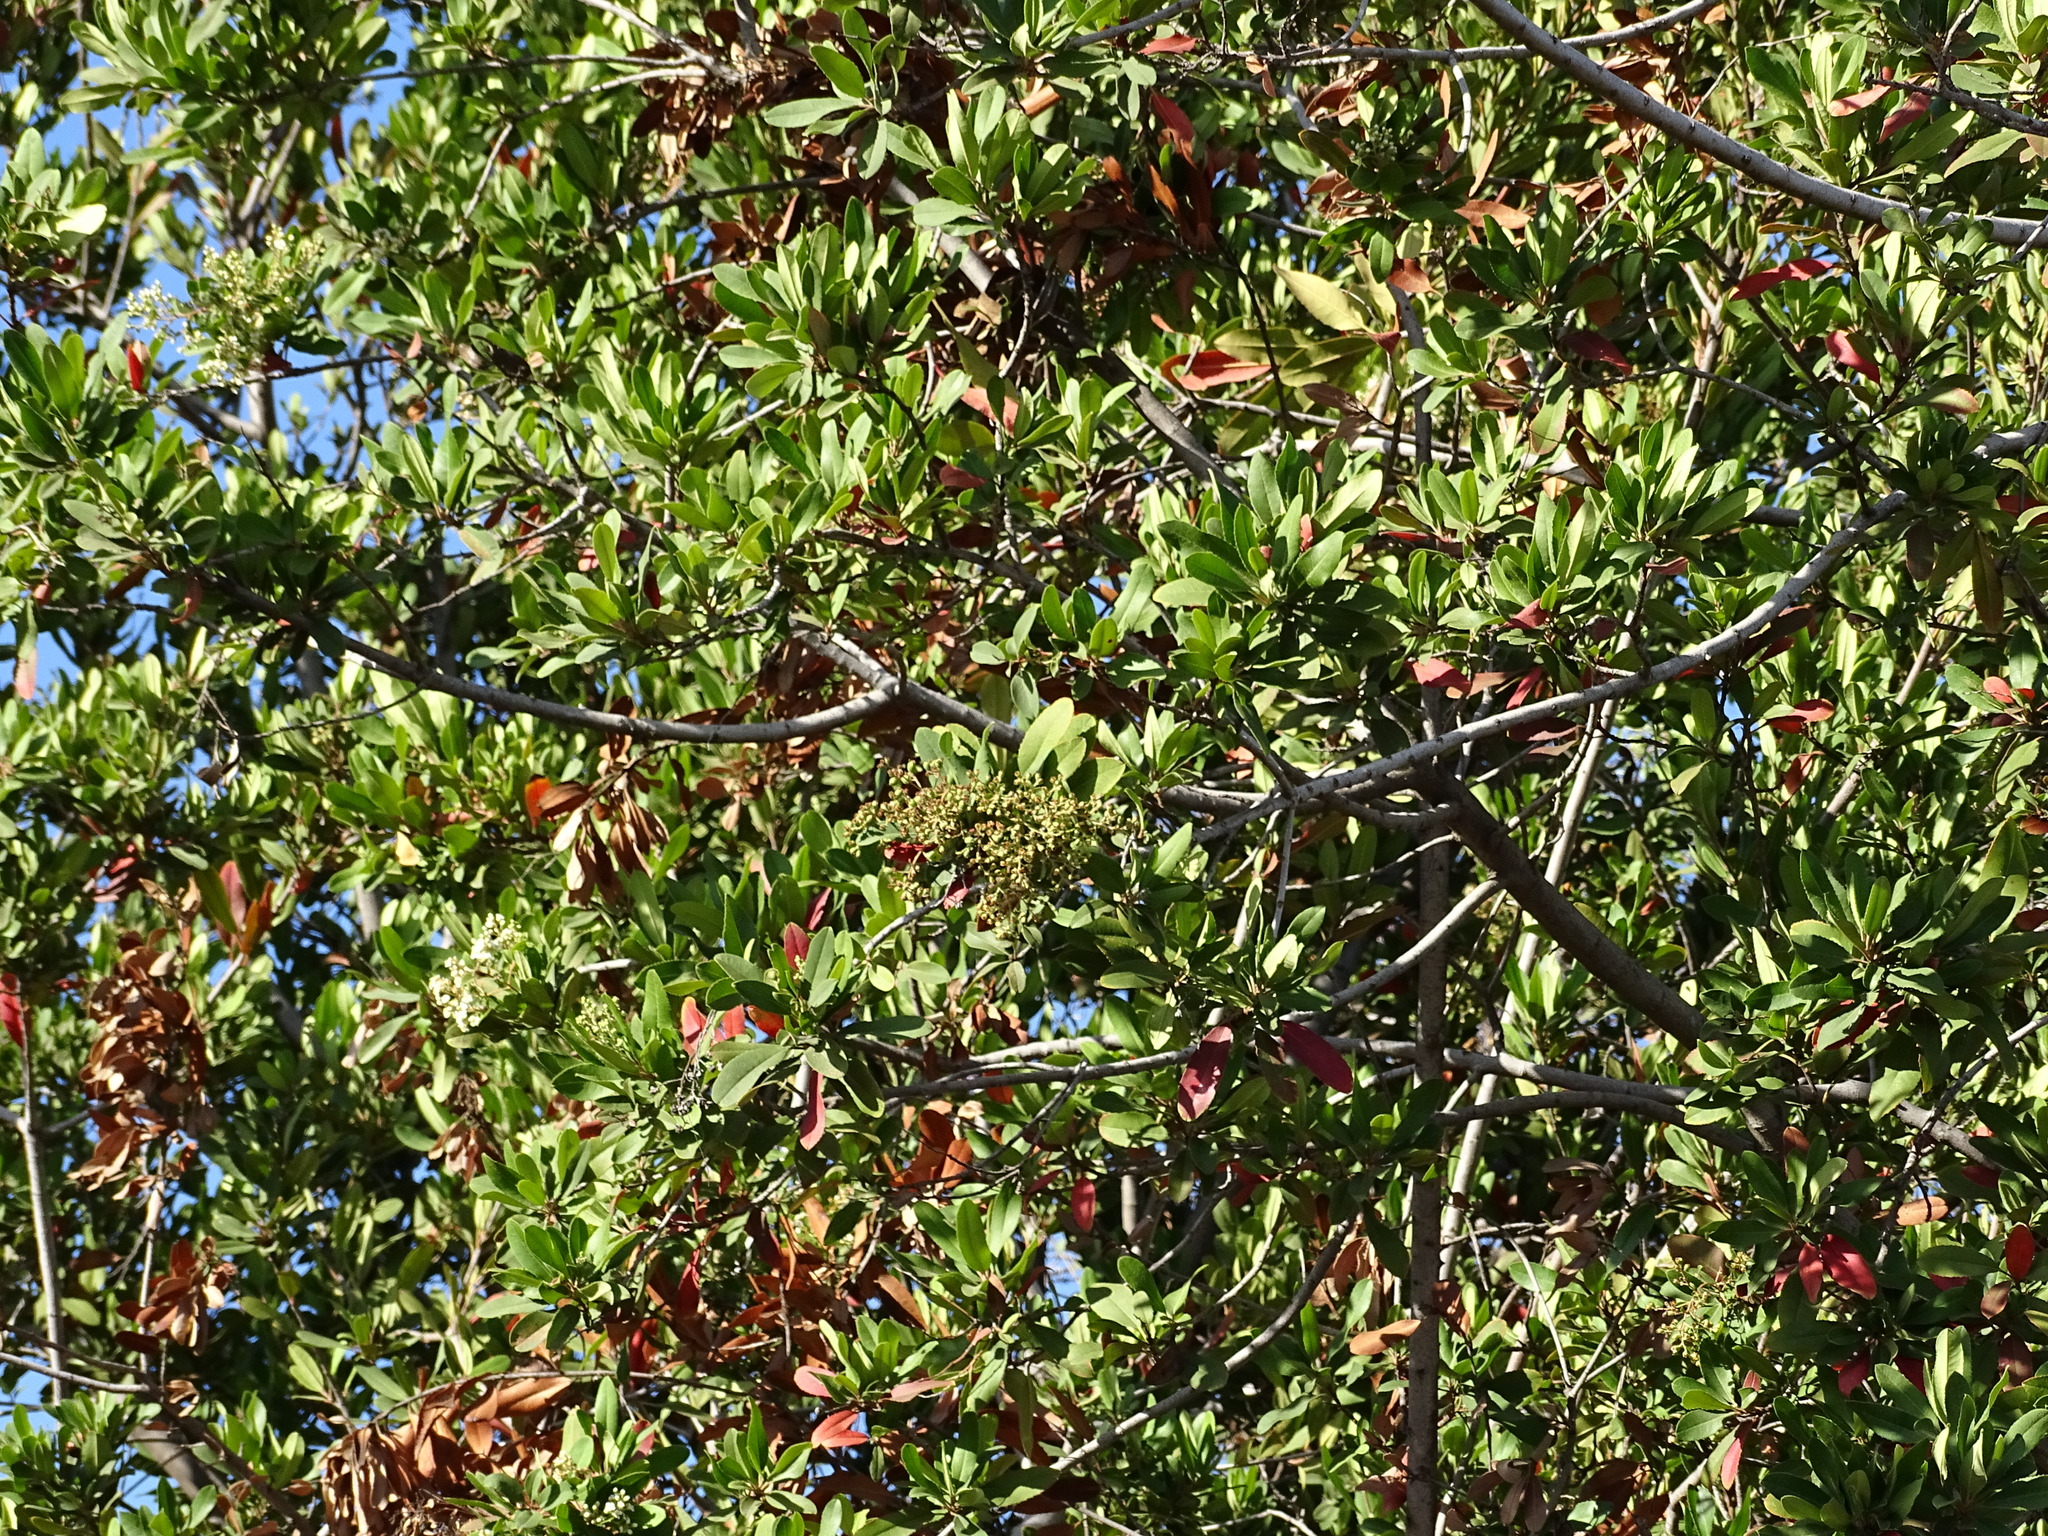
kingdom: Plantae
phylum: Tracheophyta
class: Magnoliopsida
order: Rosales
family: Rosaceae
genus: Heteromeles
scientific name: Heteromeles arbutifolia
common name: California-holly
